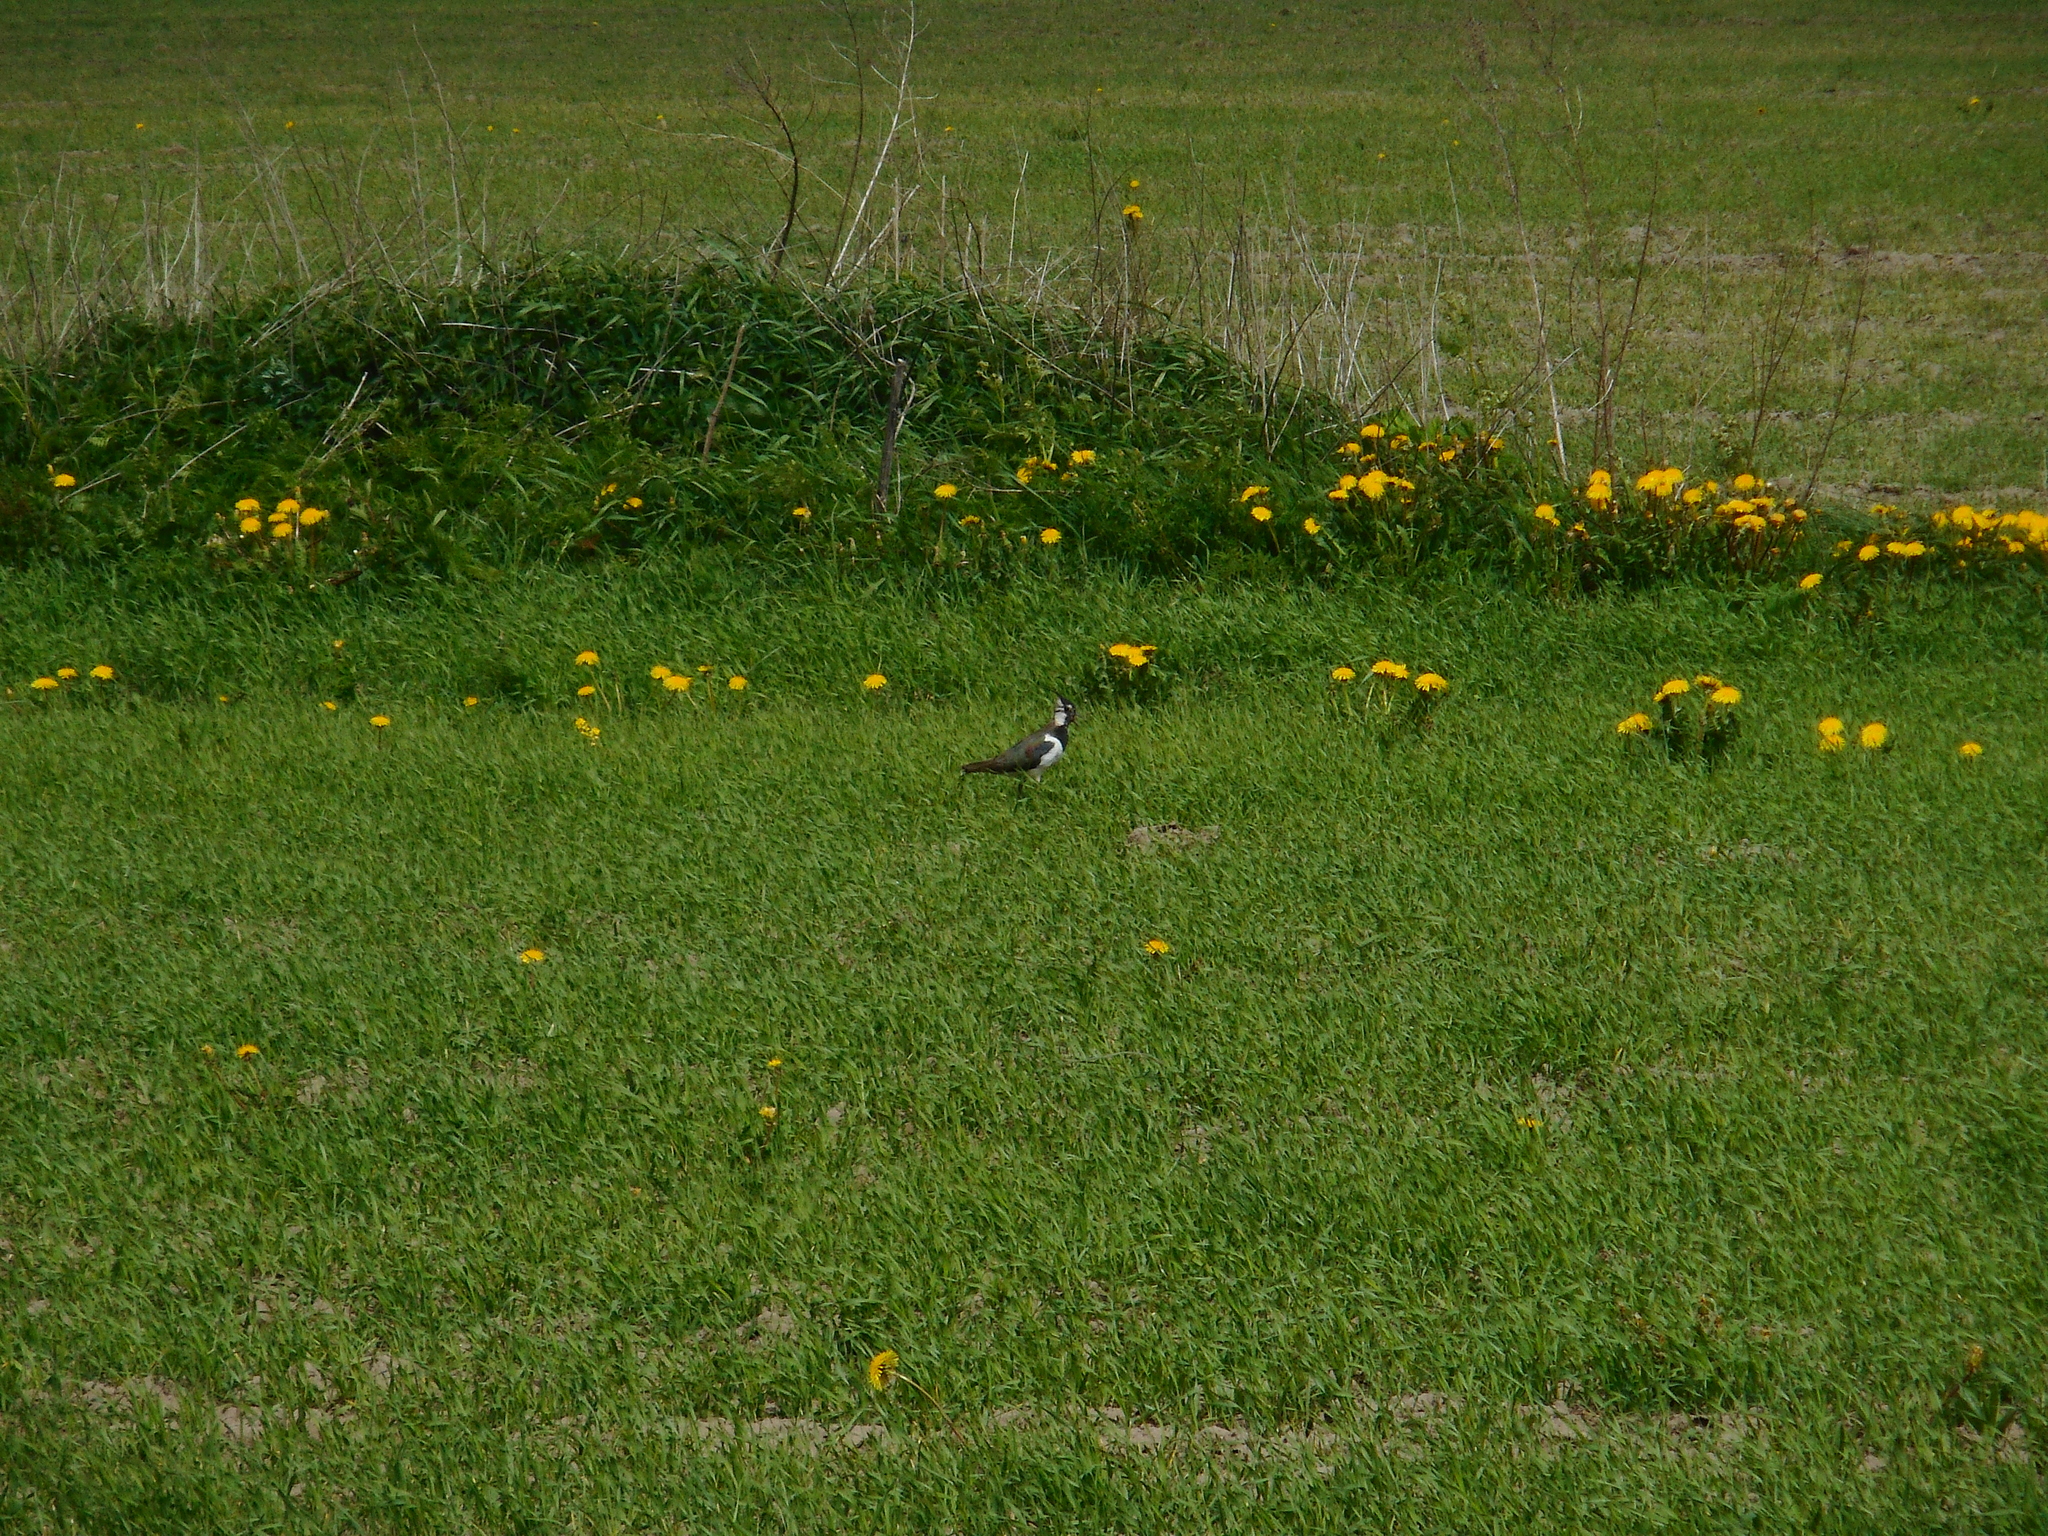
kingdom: Animalia
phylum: Chordata
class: Aves
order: Charadriiformes
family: Charadriidae
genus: Vanellus
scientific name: Vanellus vanellus
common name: Northern lapwing
